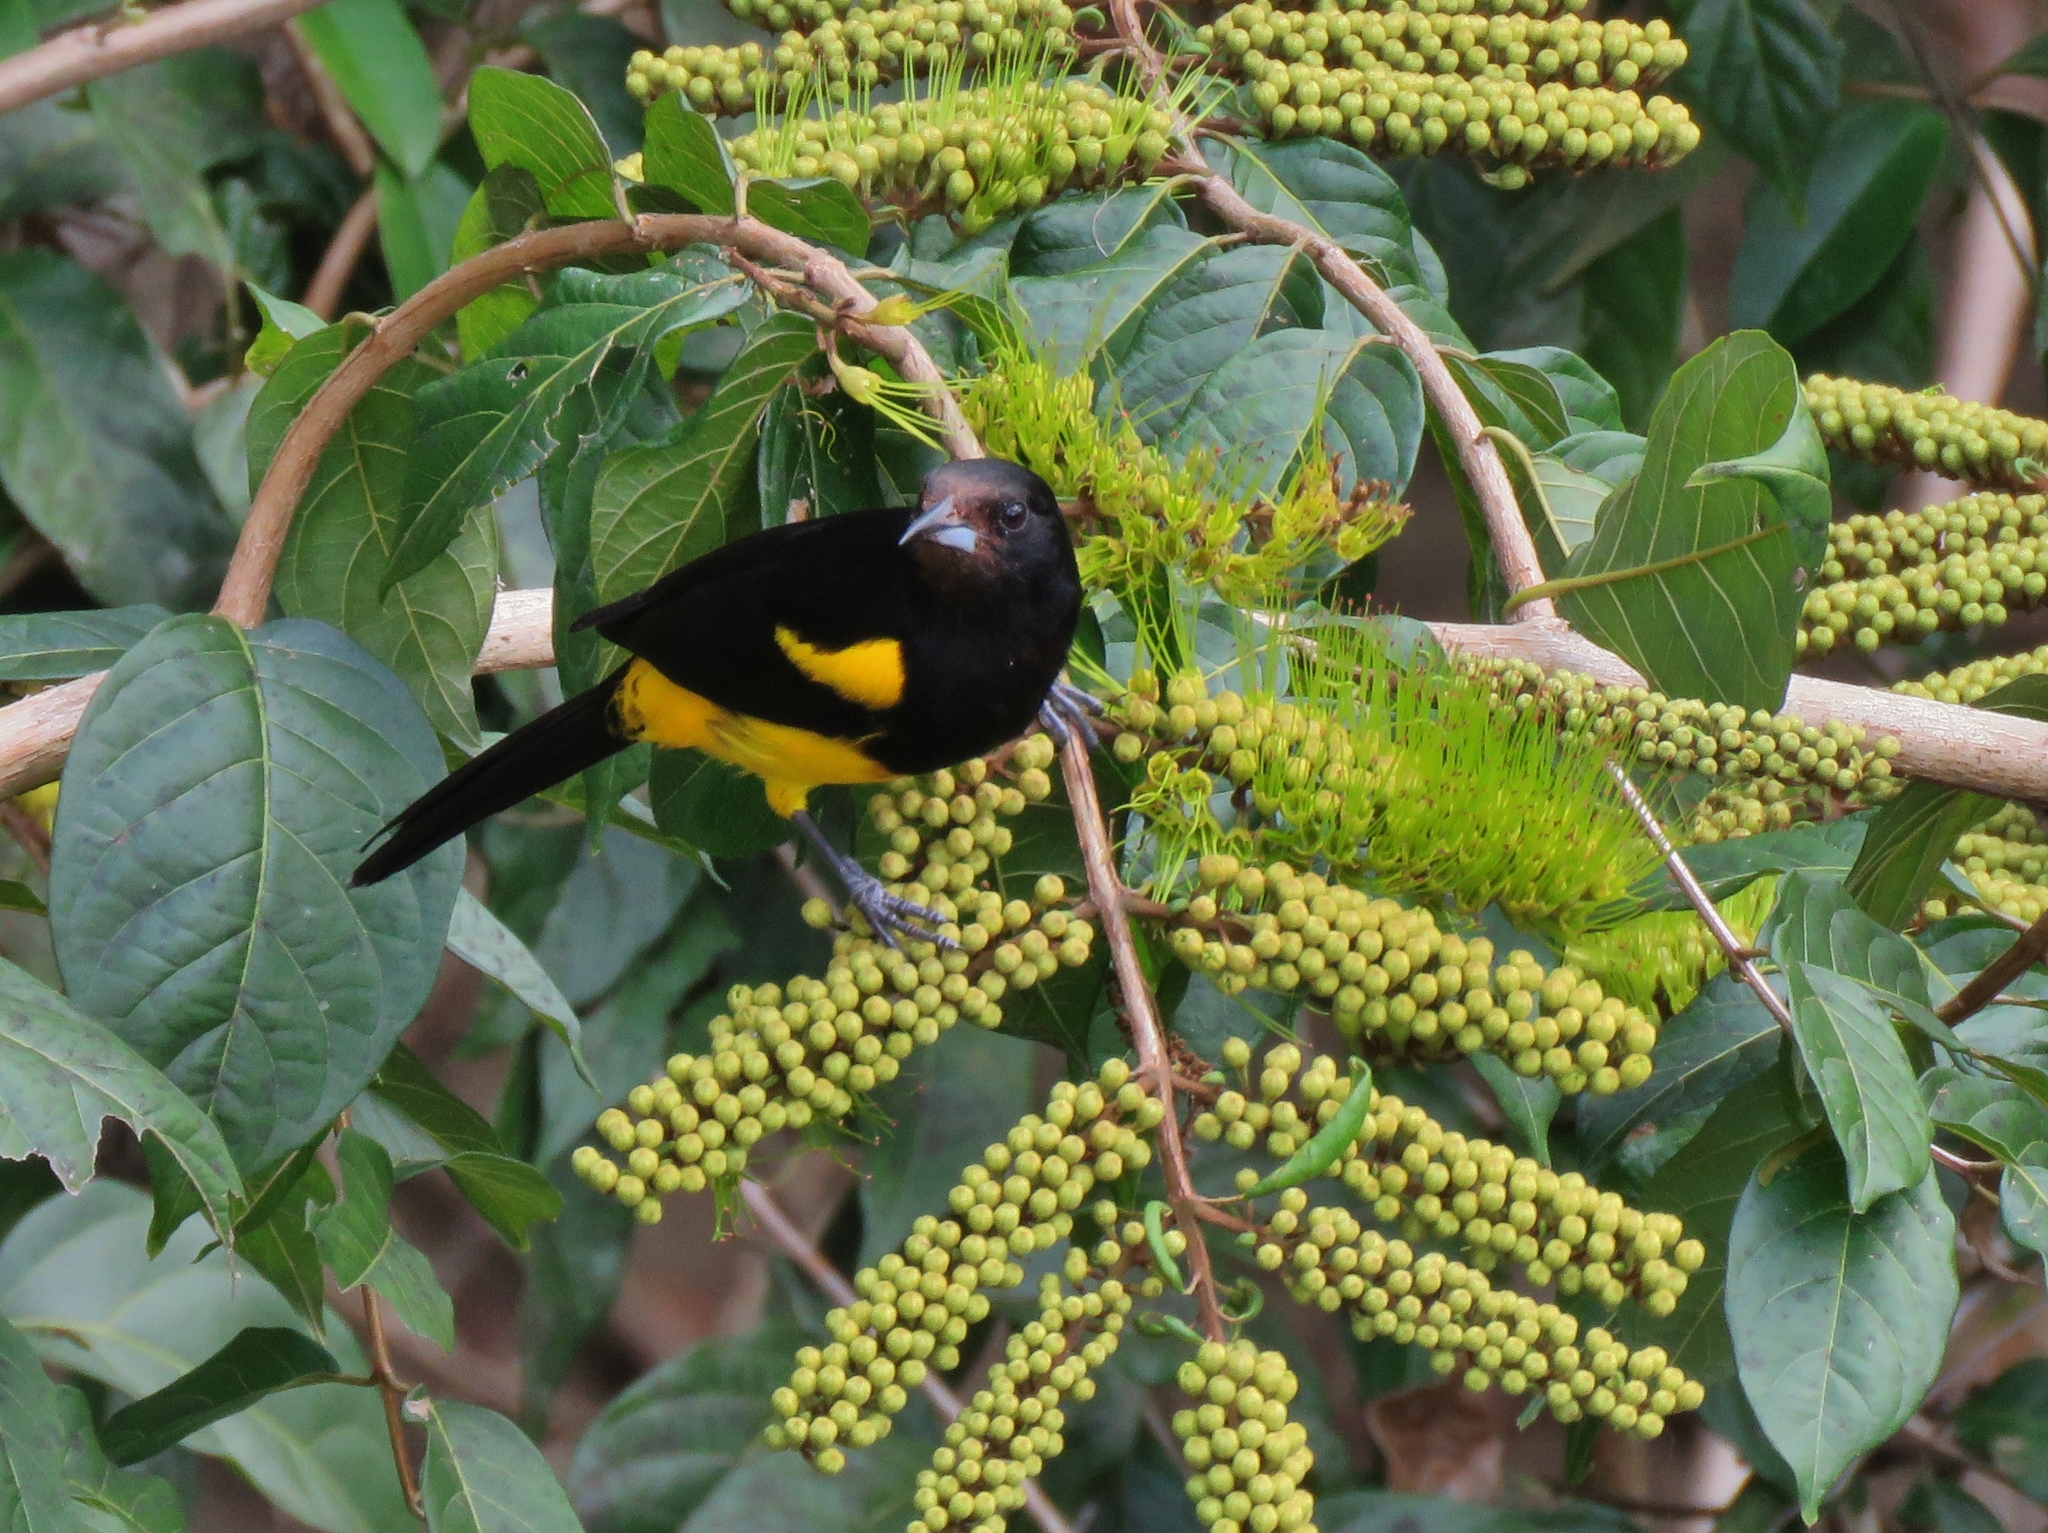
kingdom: Animalia
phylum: Chordata
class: Aves
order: Passeriformes
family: Icteridae
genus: Icterus
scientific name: Icterus prosthemelas
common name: Black-cowled oriole
